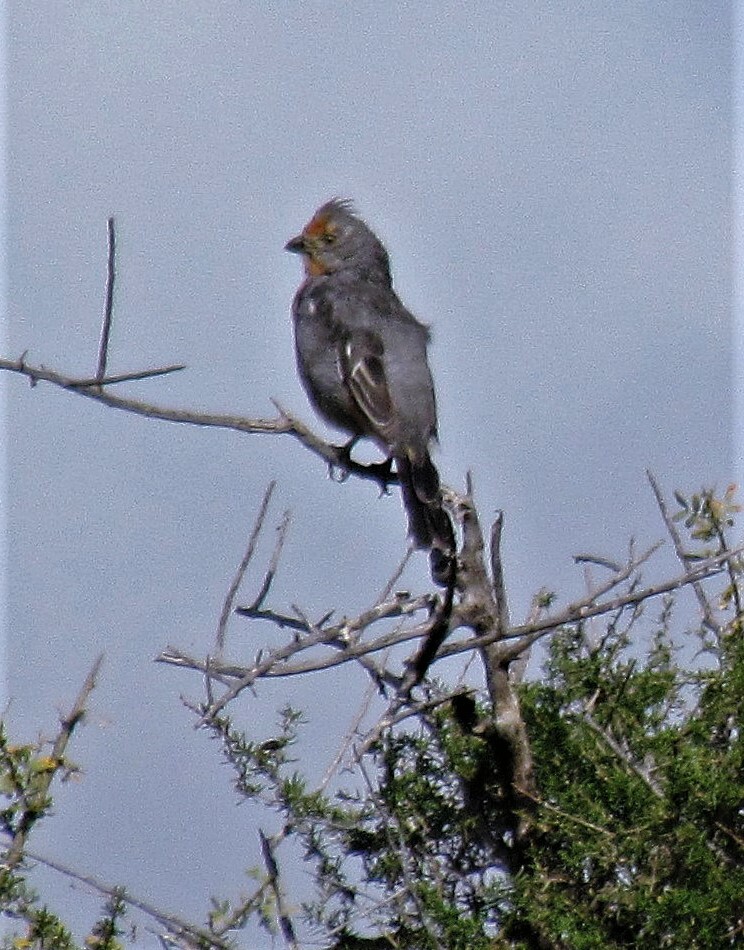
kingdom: Animalia
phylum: Chordata
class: Aves
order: Passeriformes
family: Cotingidae
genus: Phytotoma
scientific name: Phytotoma rutila
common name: White-tipped plantcutter
